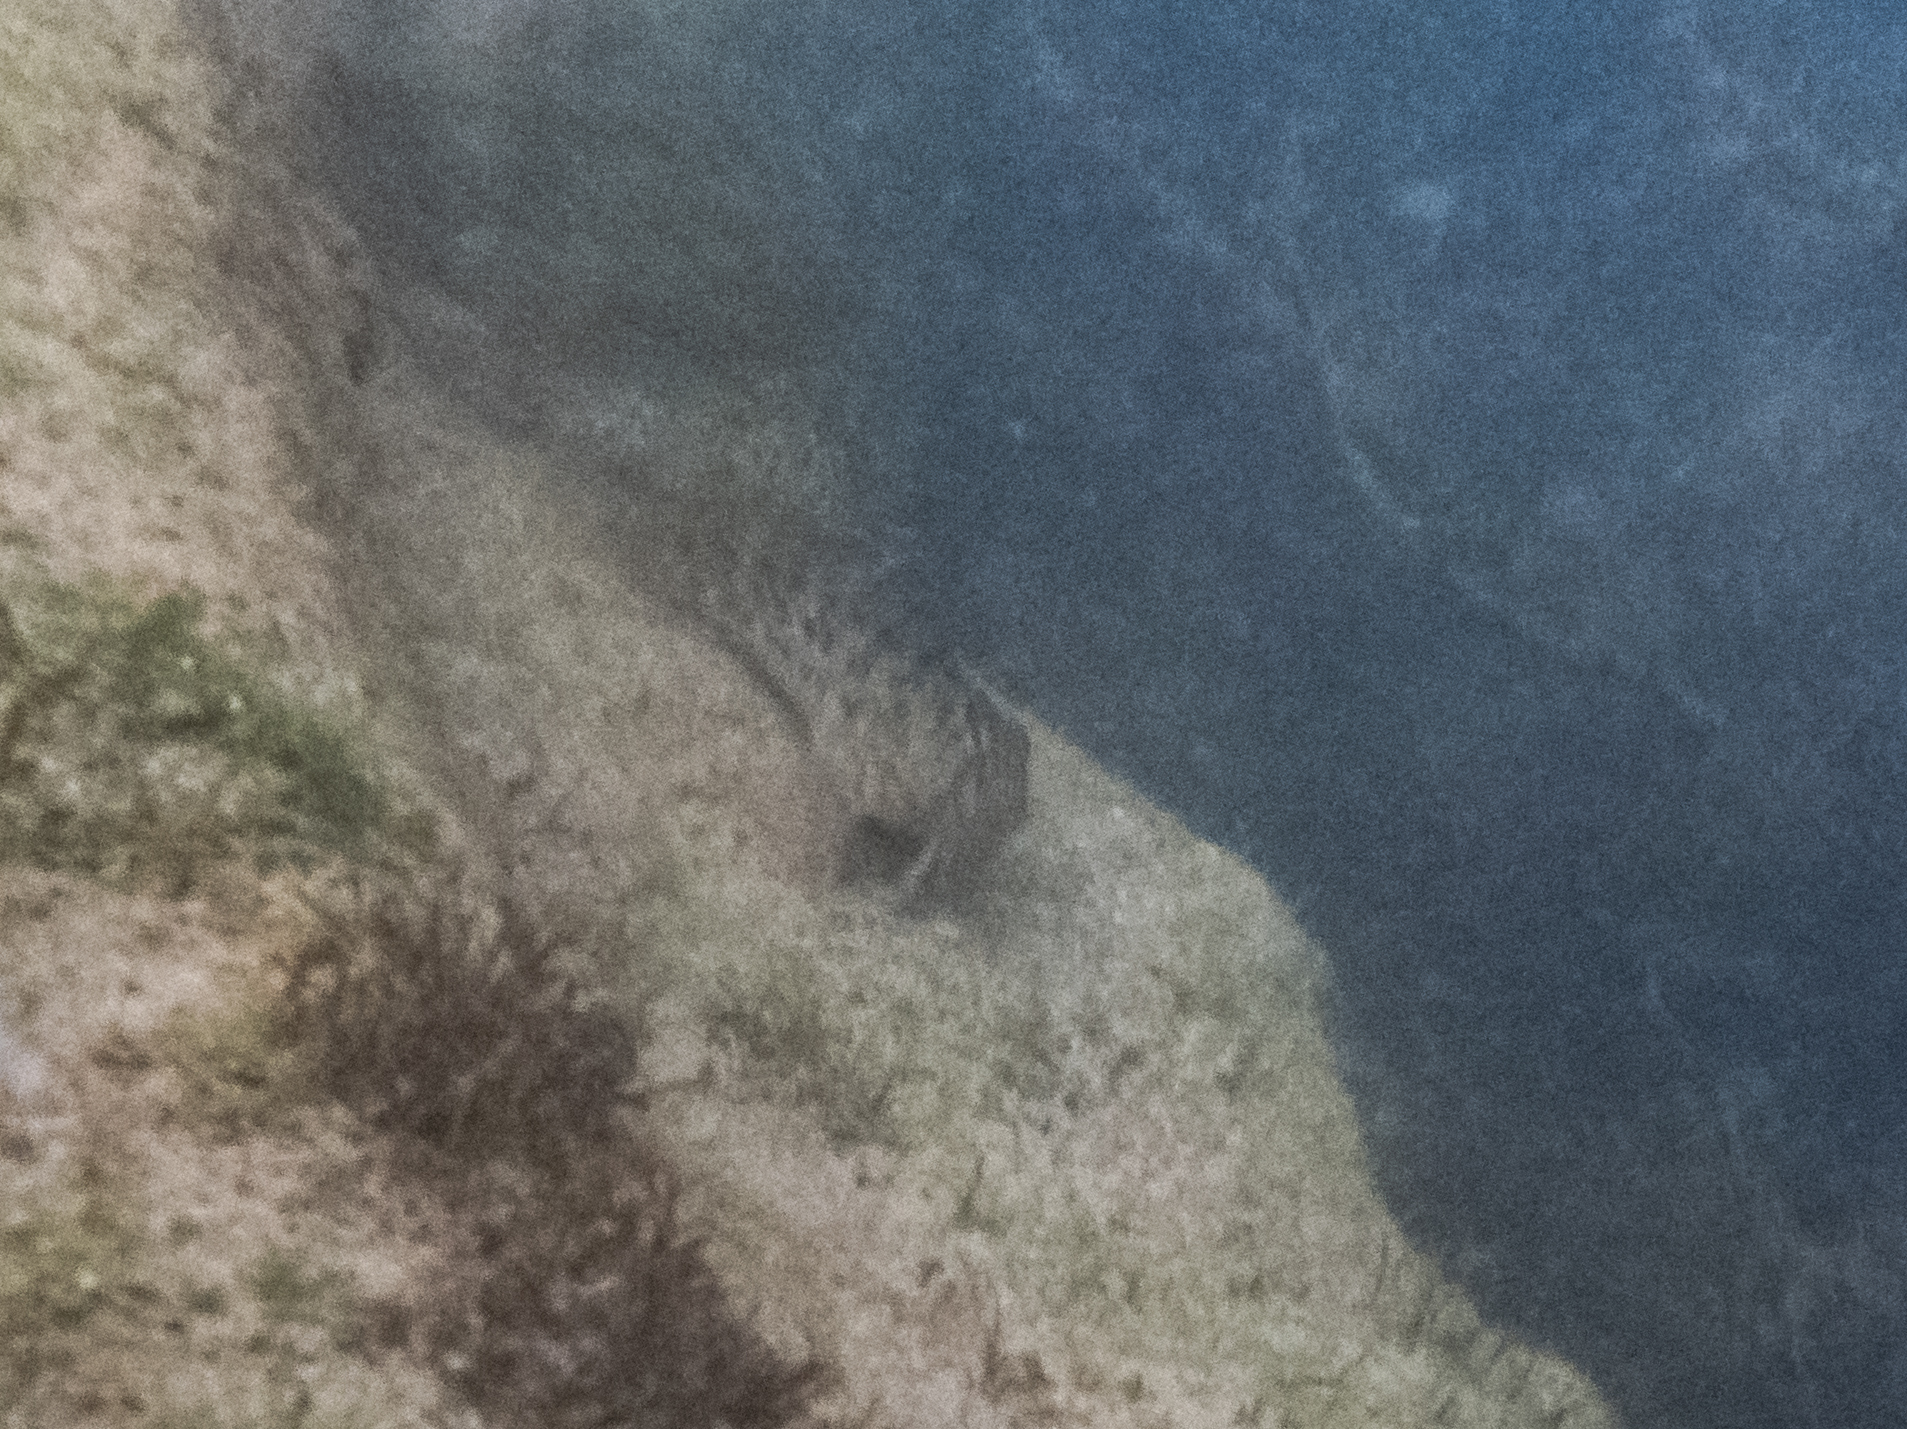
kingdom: Animalia
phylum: Chordata
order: Perciformes
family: Blenniidae
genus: Parablennius
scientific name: Parablennius sanguinolentus
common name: Black sea blenny
